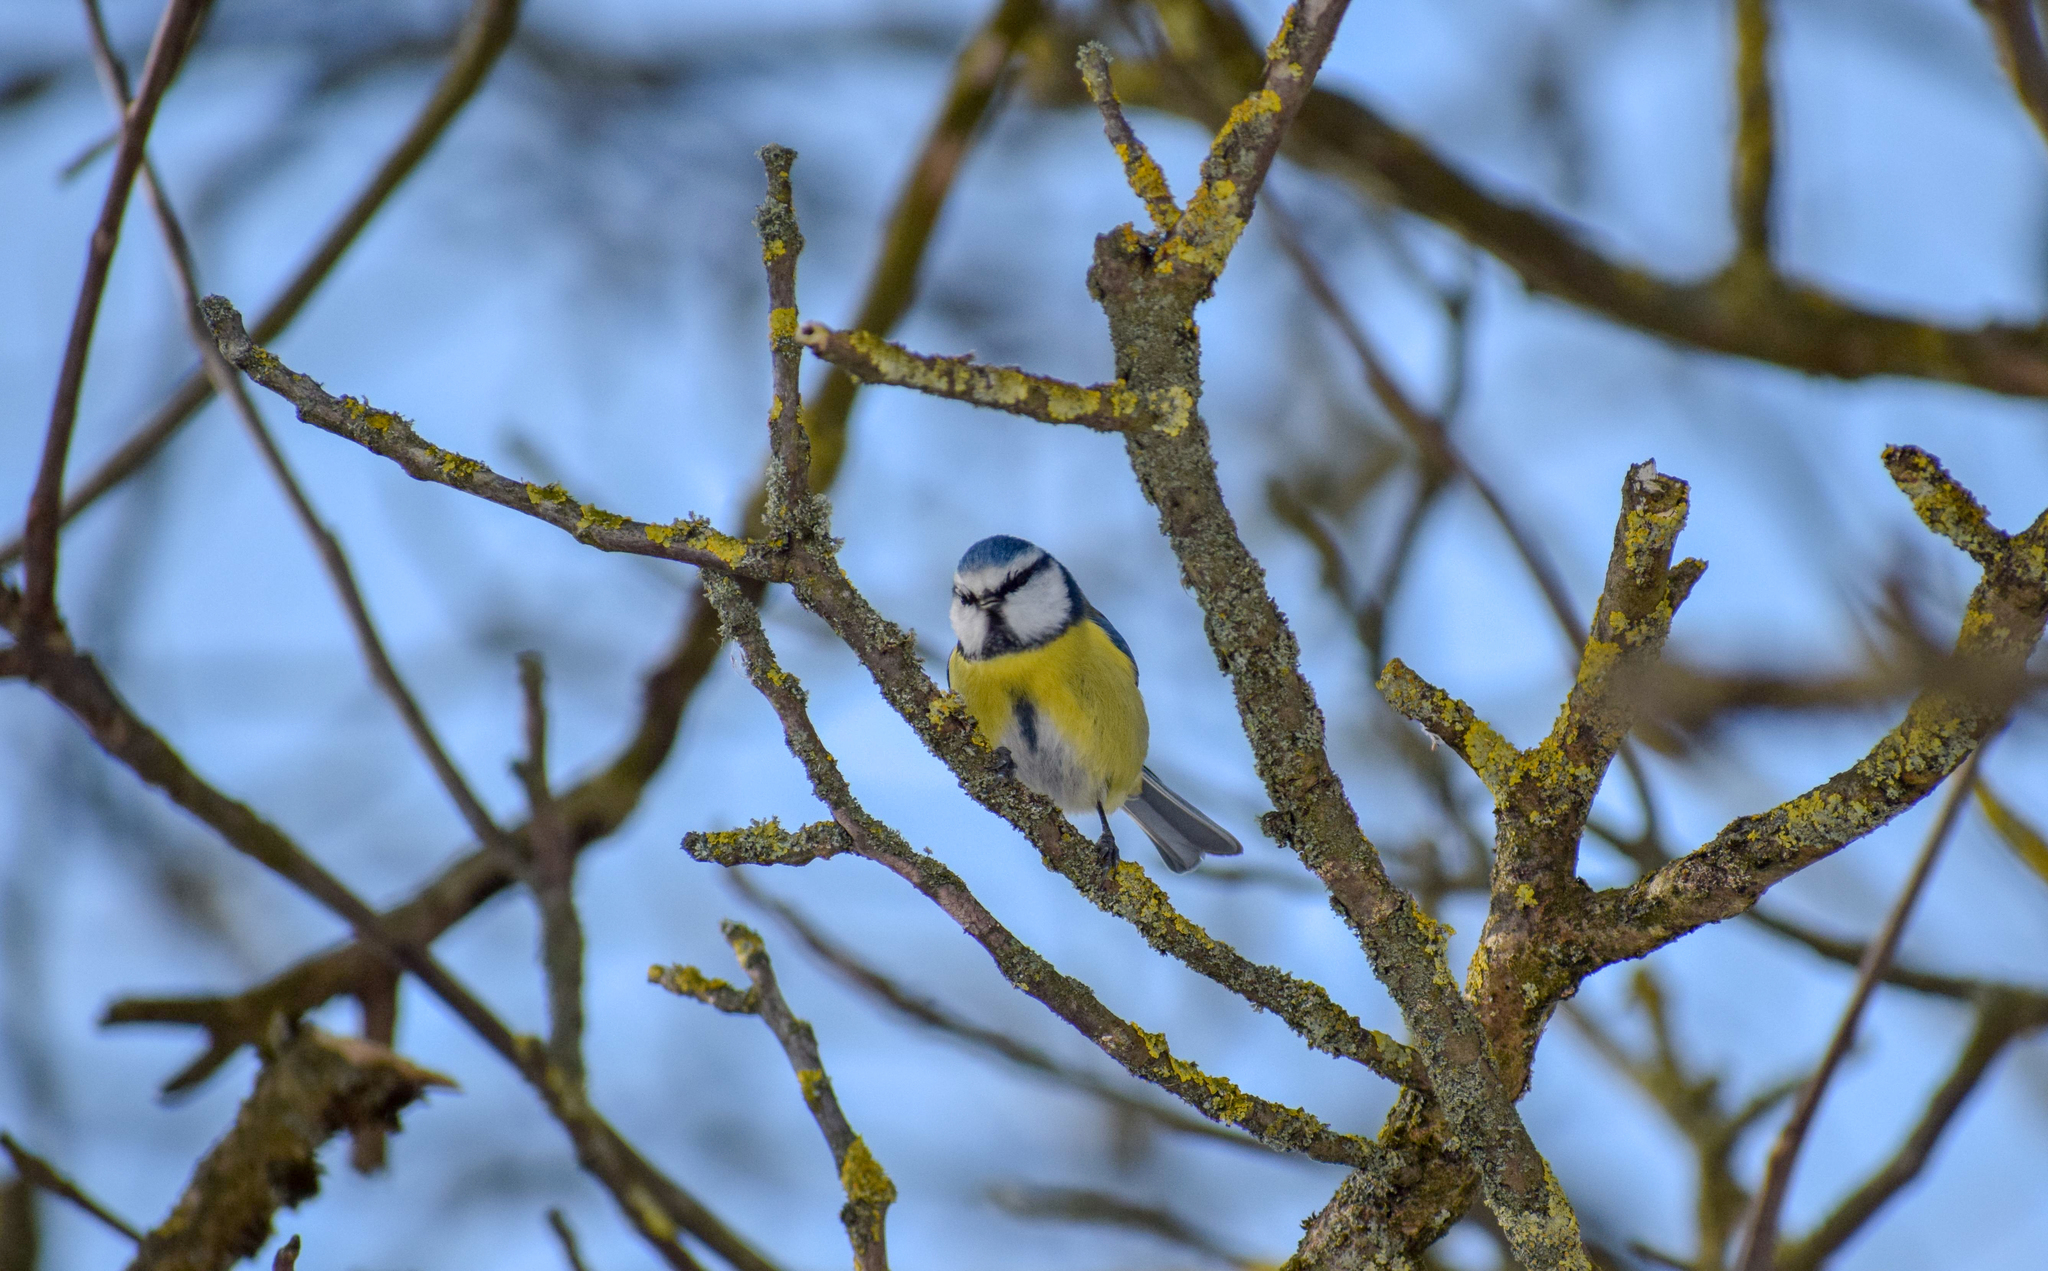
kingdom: Animalia
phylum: Chordata
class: Aves
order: Passeriformes
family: Paridae
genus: Cyanistes
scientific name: Cyanistes caeruleus
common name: Eurasian blue tit
